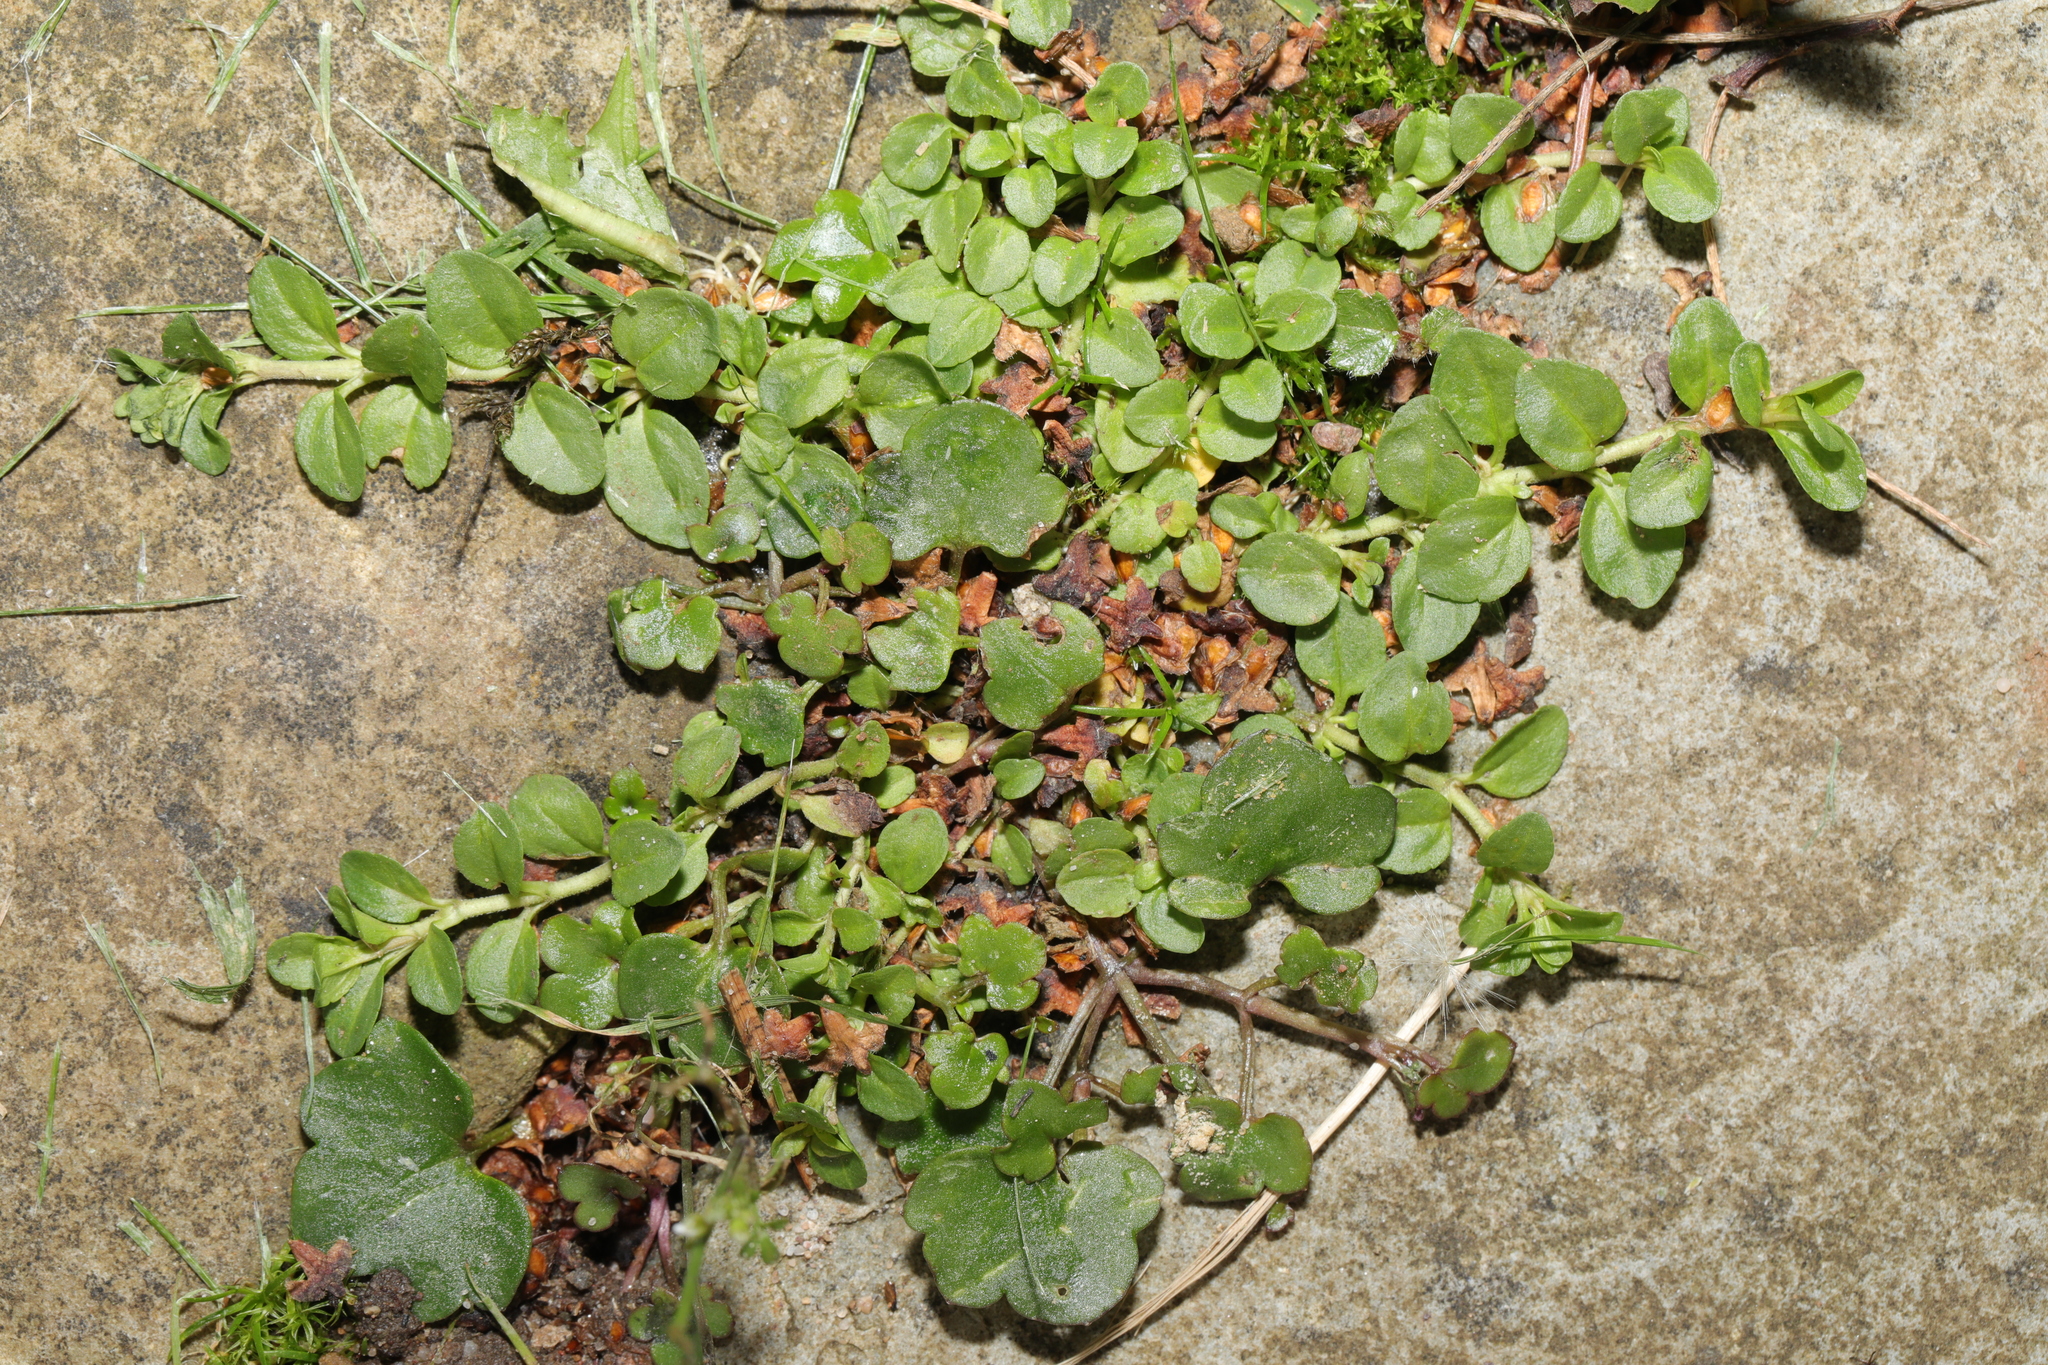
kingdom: Plantae
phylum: Tracheophyta
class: Magnoliopsida
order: Lamiales
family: Plantaginaceae
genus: Veronica
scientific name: Veronica serpyllifolia
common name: Thyme-leaved speedwell
